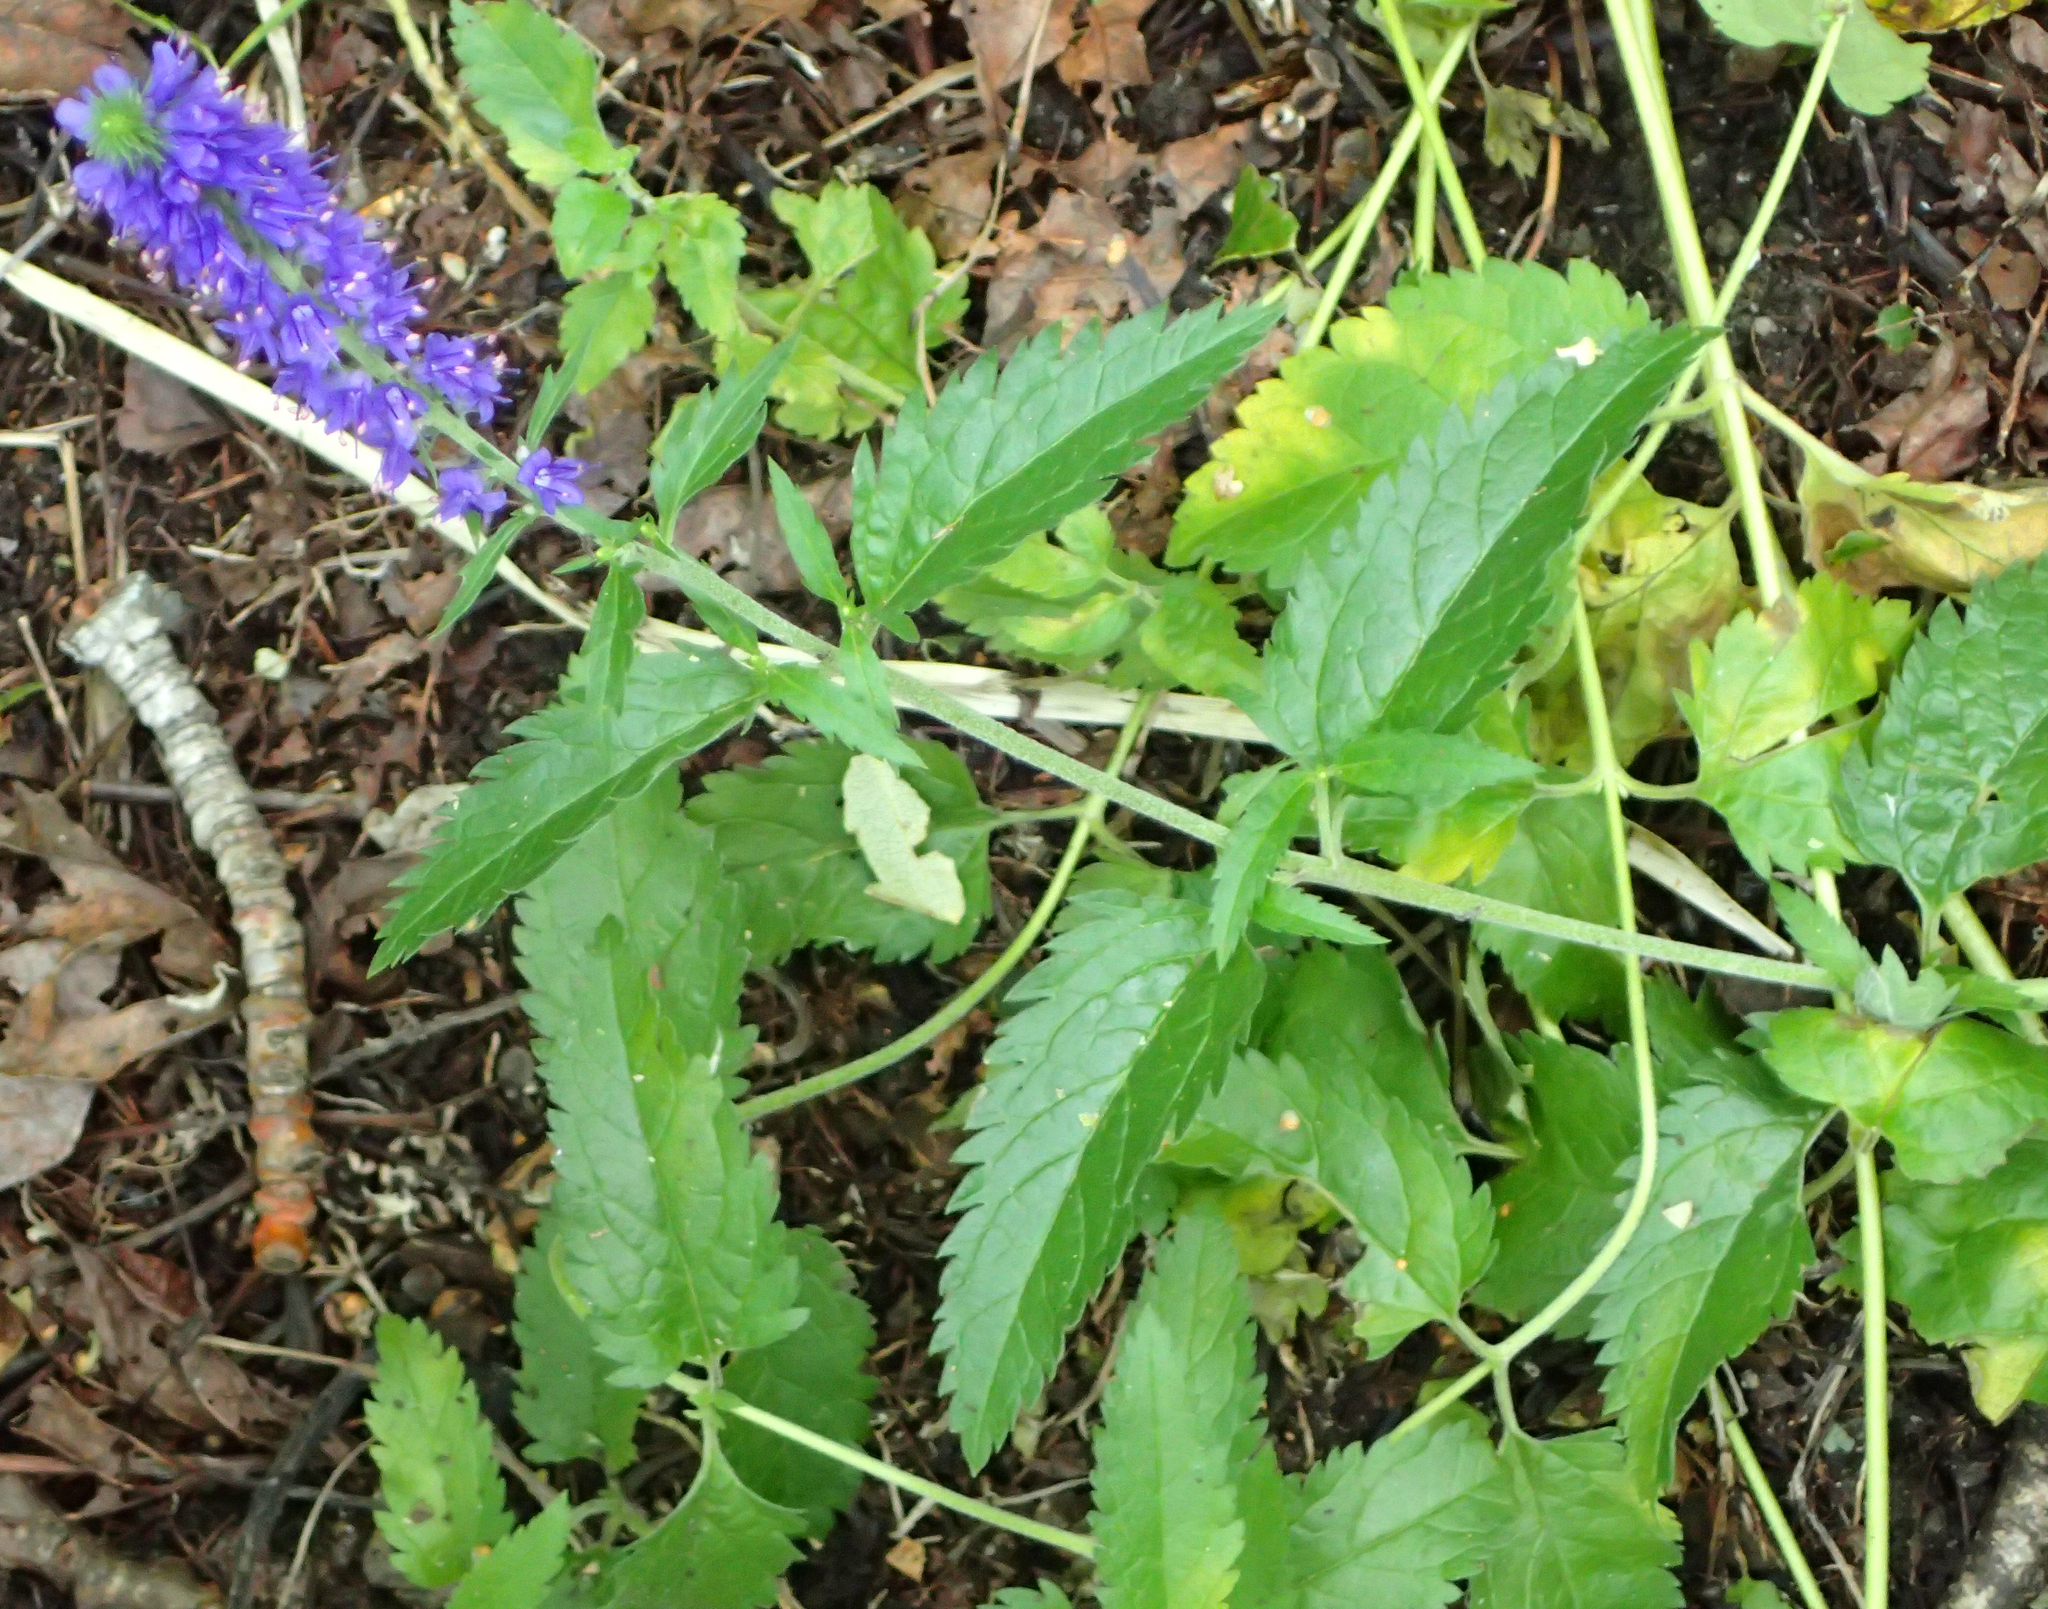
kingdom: Plantae
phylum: Tracheophyta
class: Magnoliopsida
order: Lamiales
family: Plantaginaceae
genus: Veronica
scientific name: Veronica longifolia
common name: Garden speedwell
